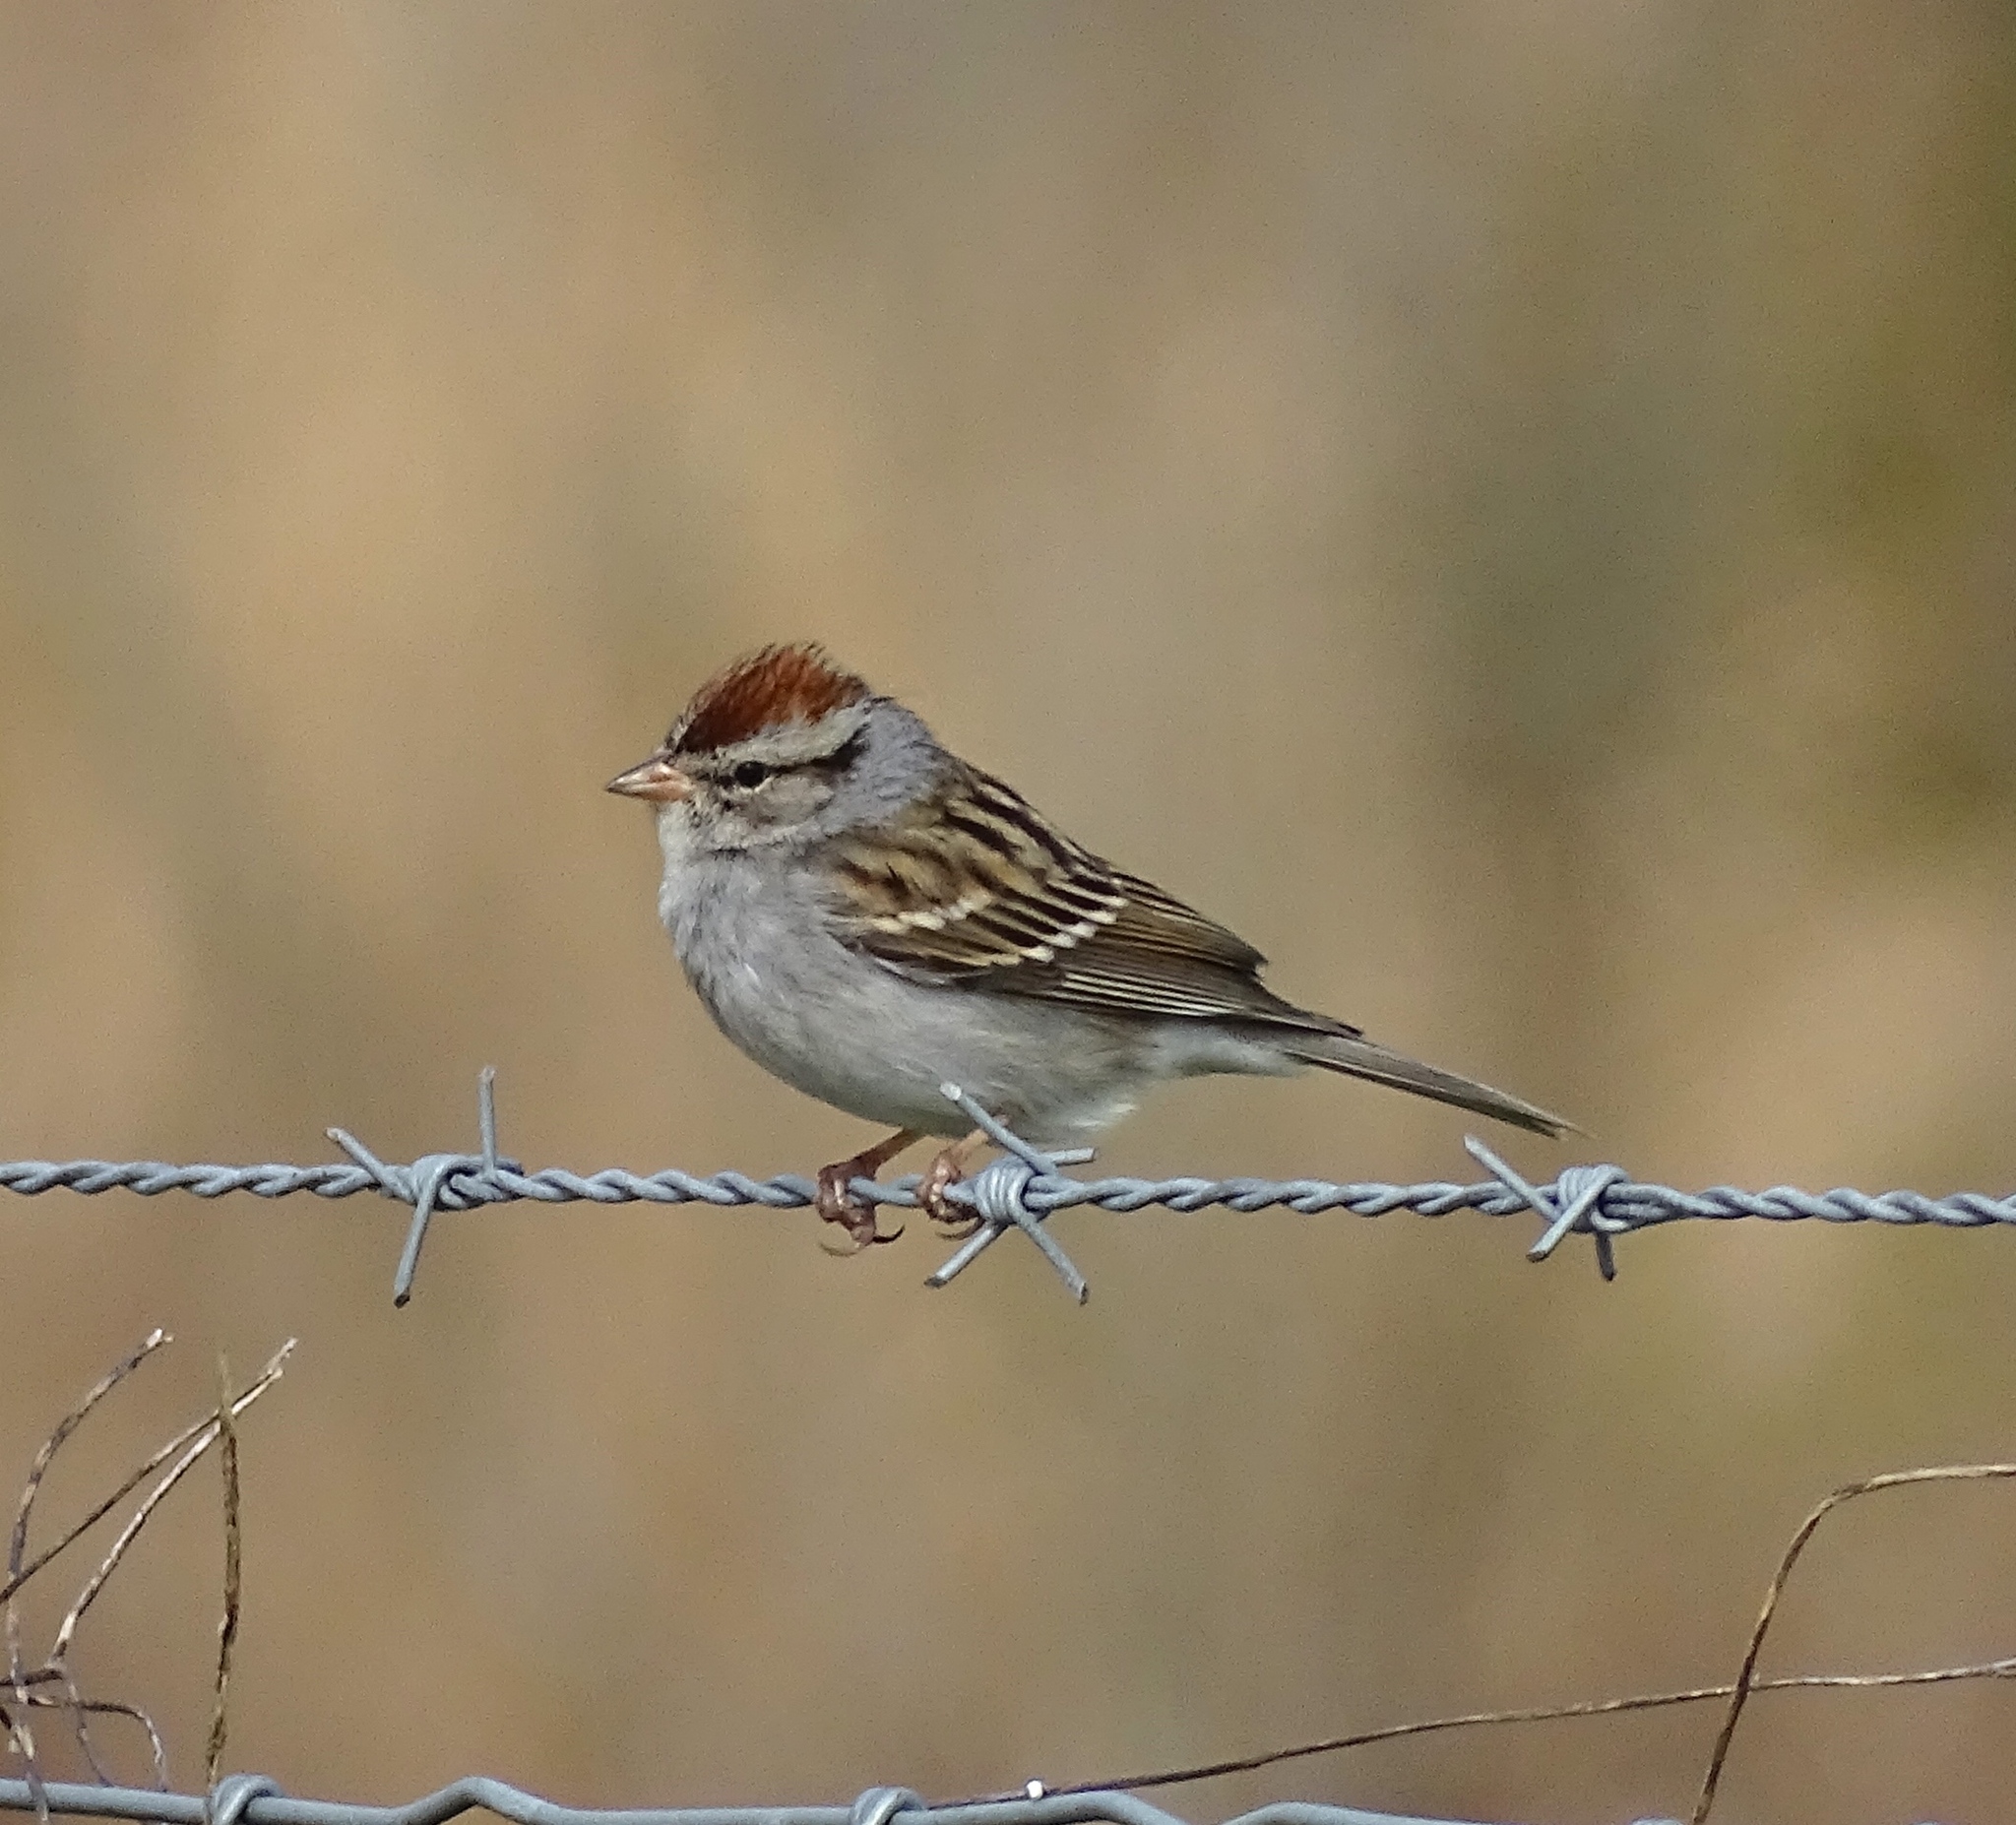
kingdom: Animalia
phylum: Chordata
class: Aves
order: Passeriformes
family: Passerellidae
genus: Spizella
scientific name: Spizella passerina
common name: Chipping sparrow
